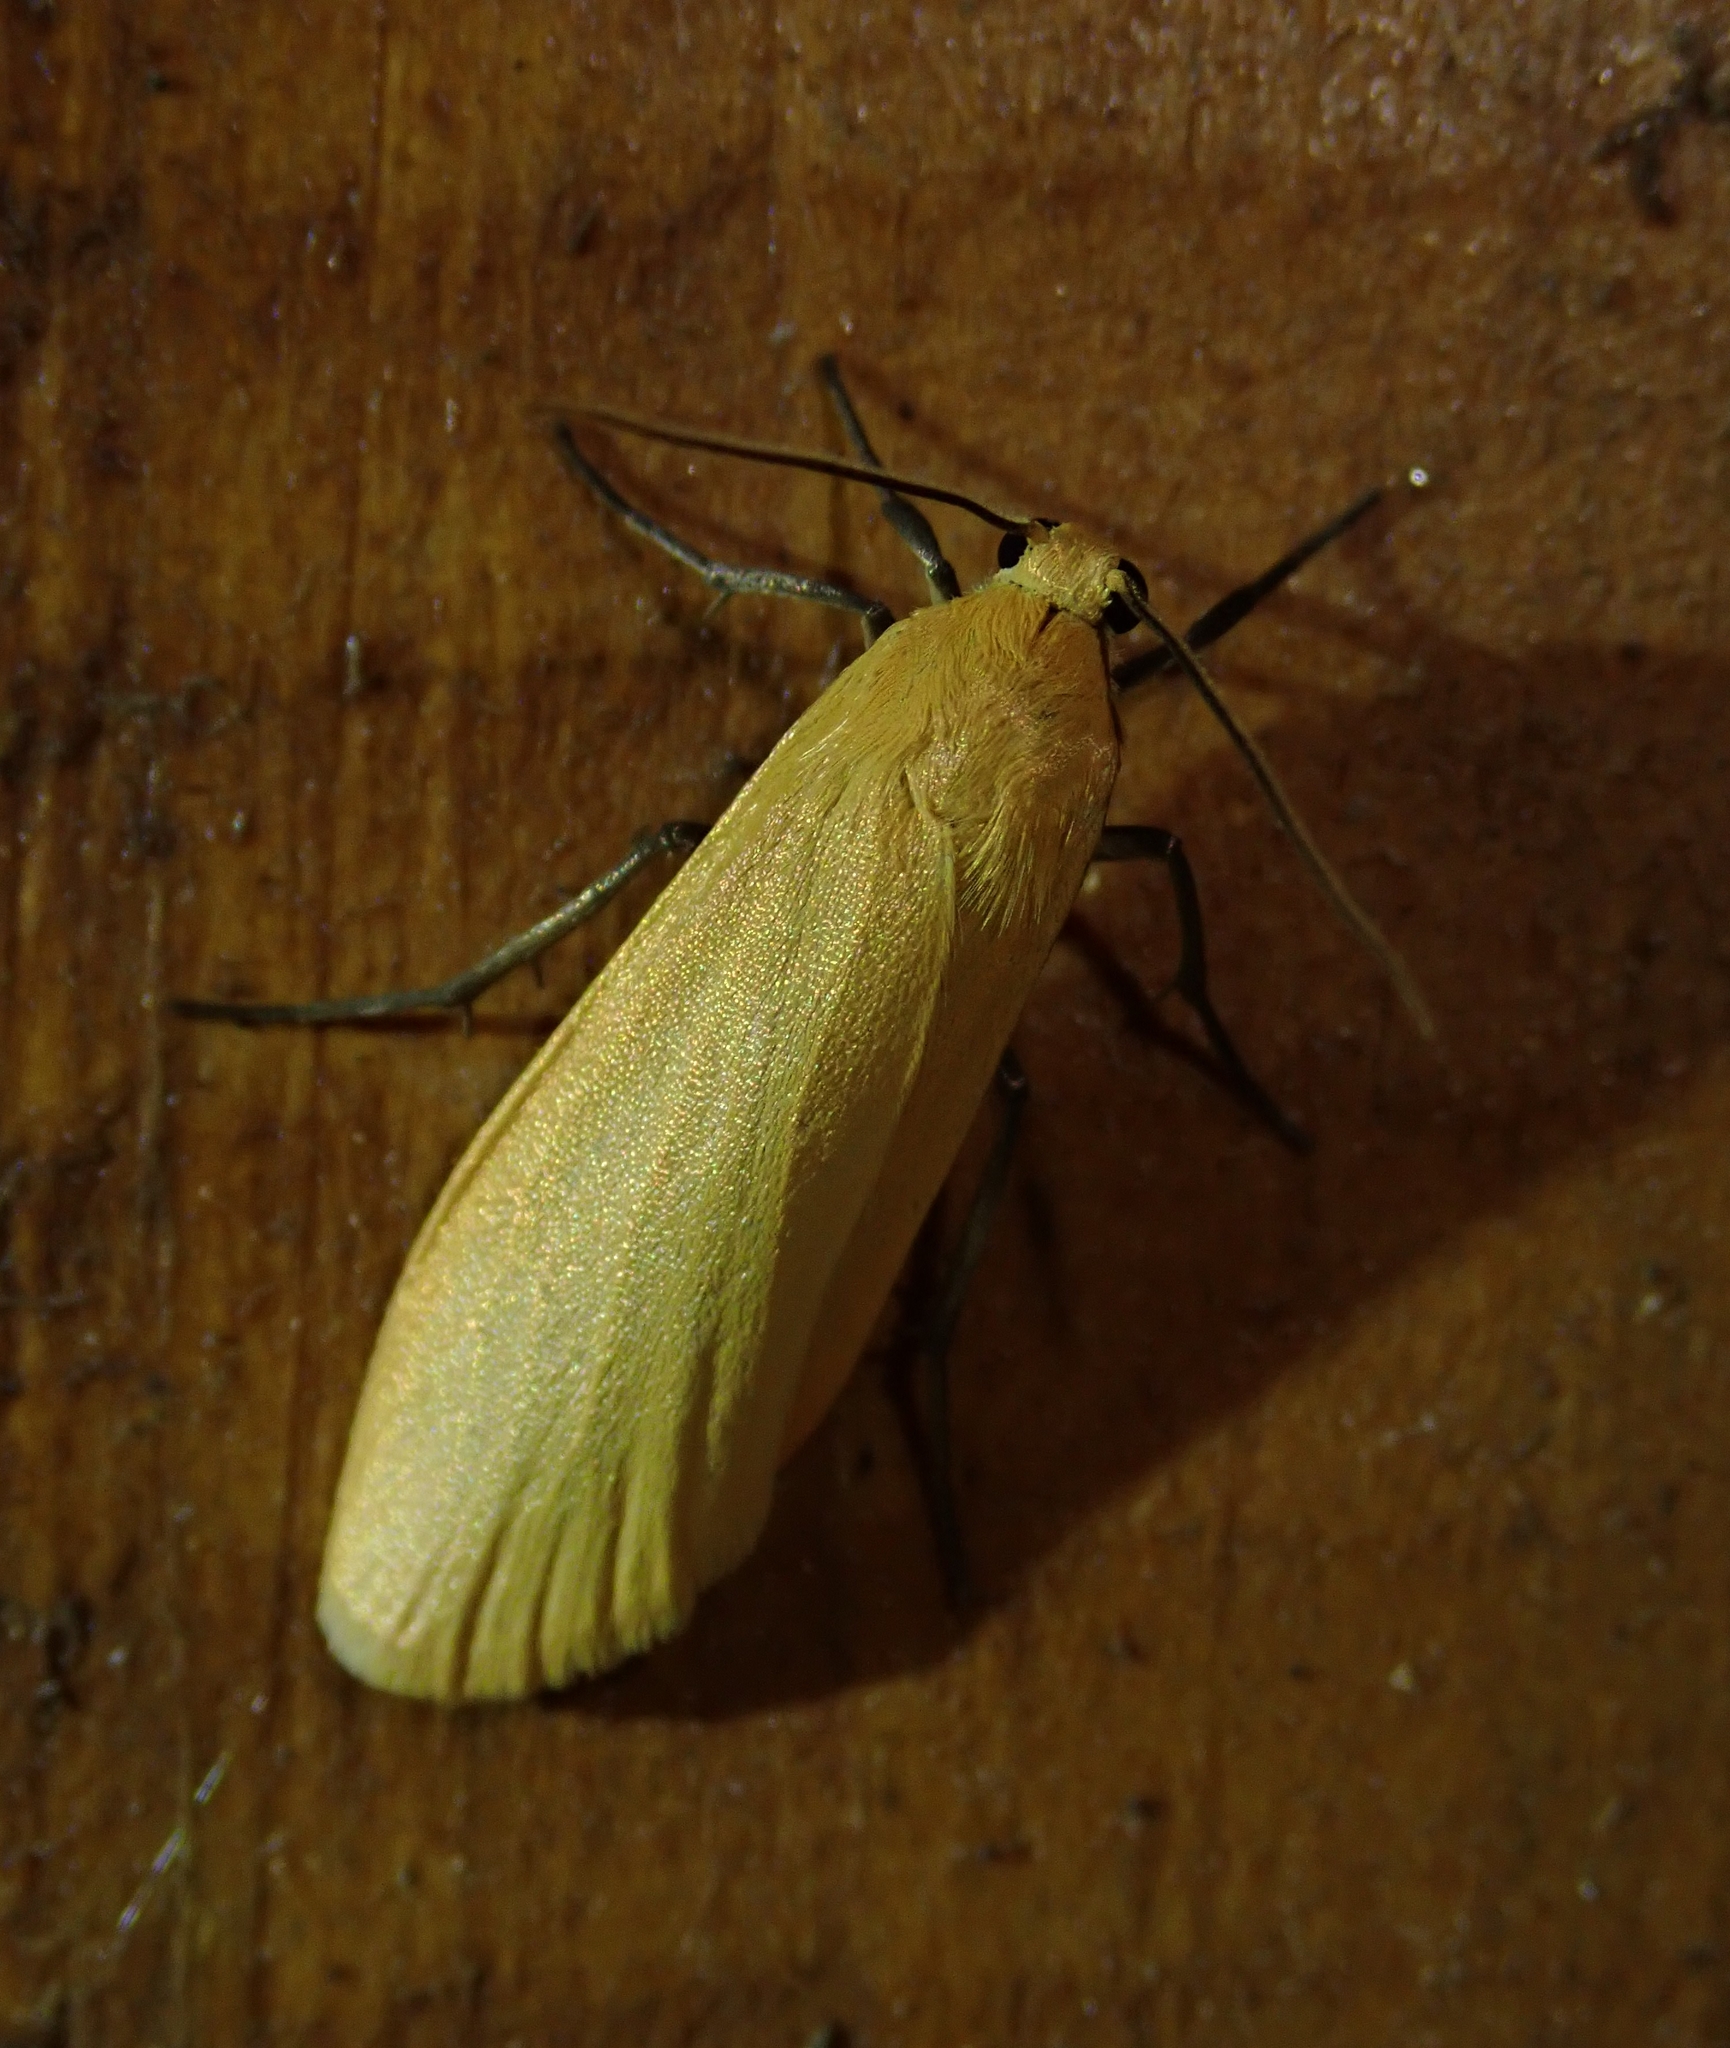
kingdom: Animalia
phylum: Arthropoda
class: Insecta
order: Lepidoptera
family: Erebidae
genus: Wittia
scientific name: Wittia sororcula
